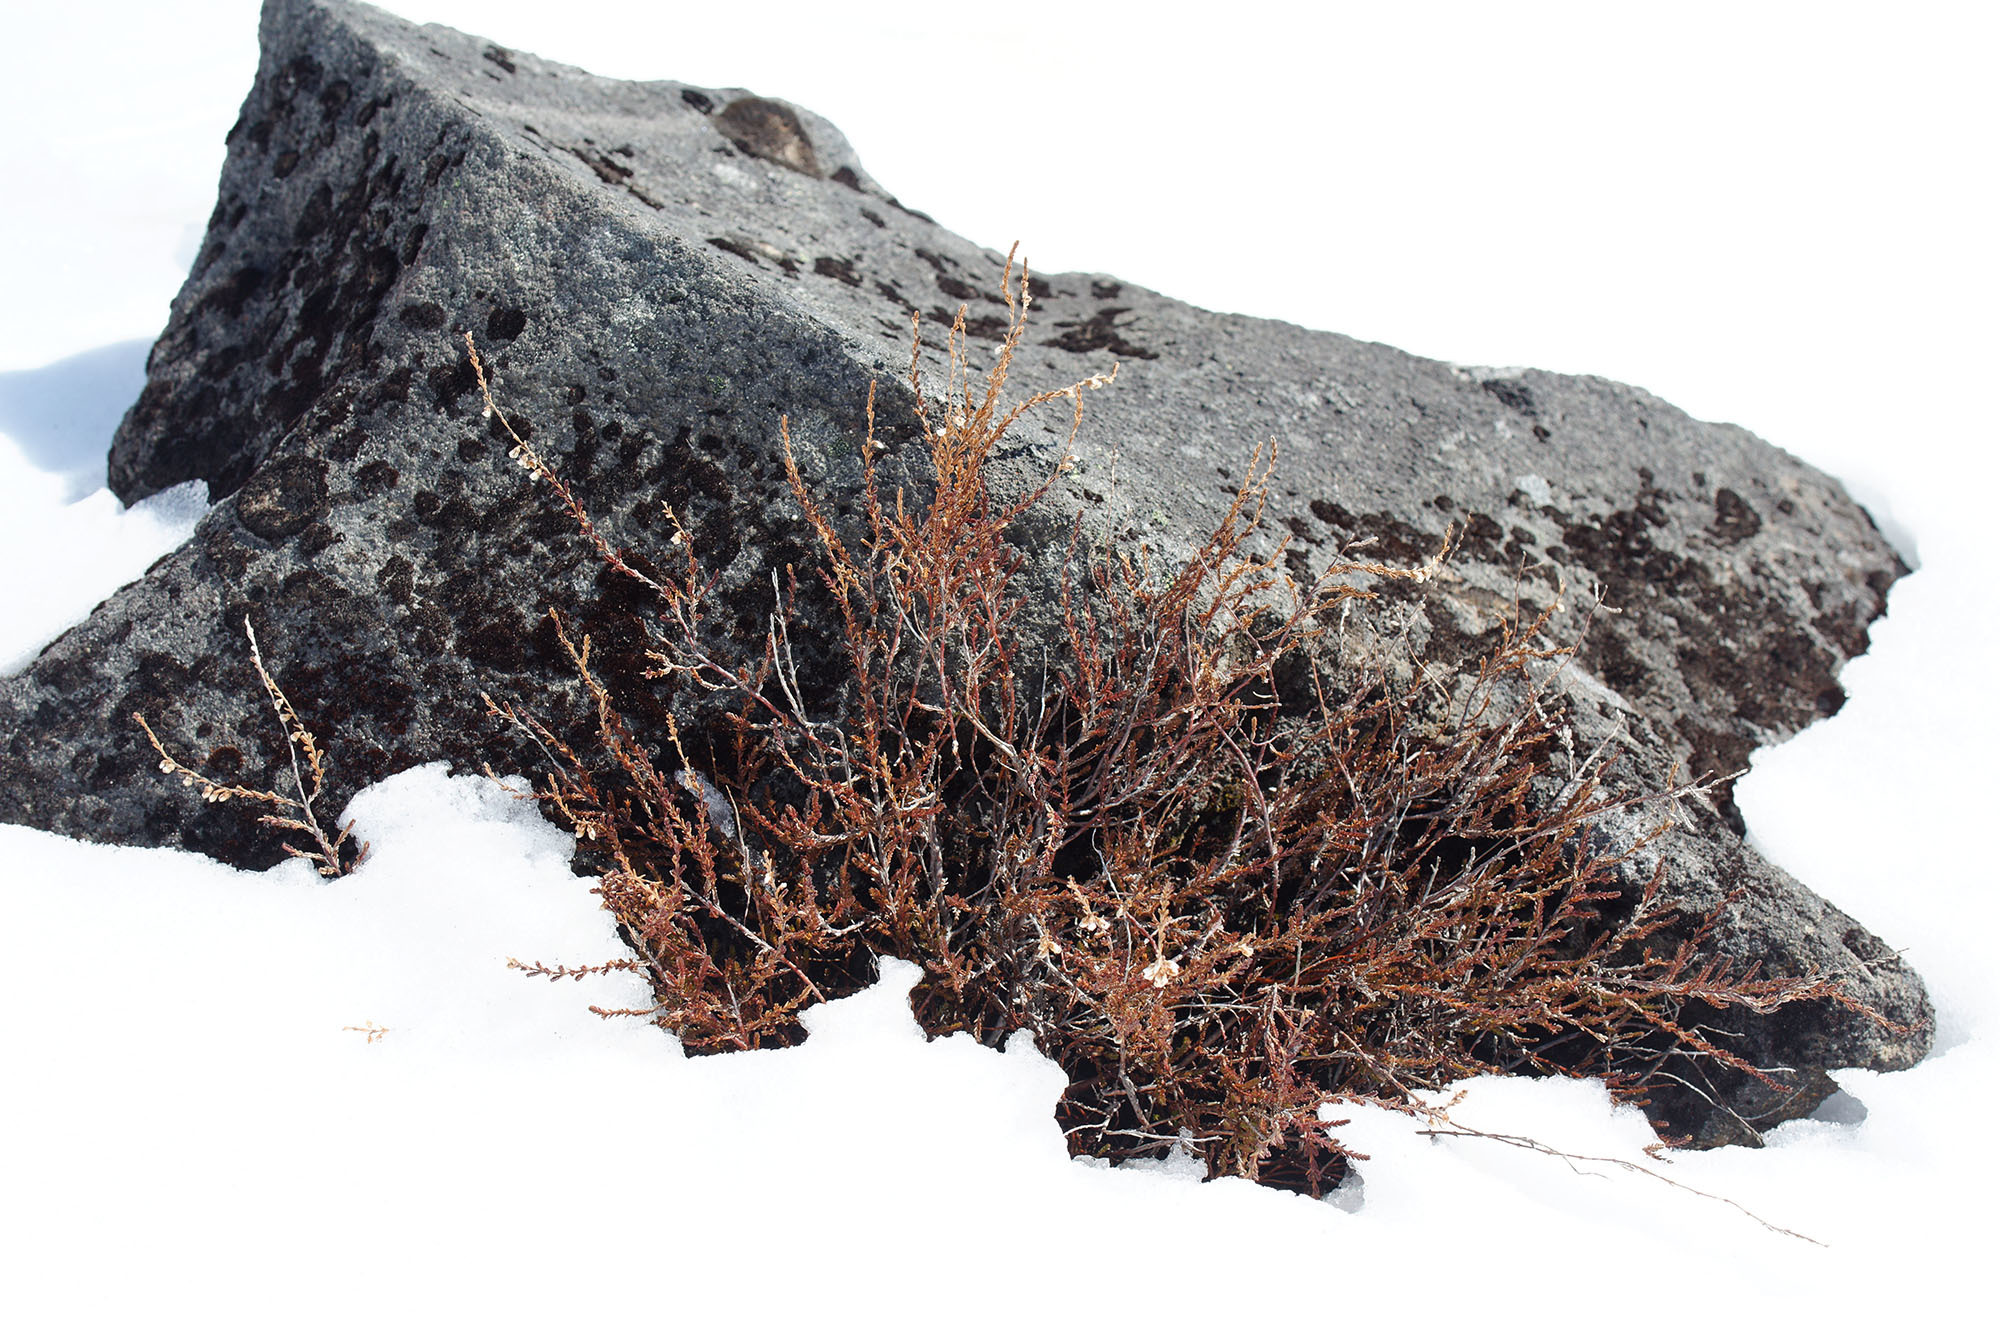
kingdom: Plantae
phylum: Tracheophyta
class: Magnoliopsida
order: Ericales
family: Ericaceae
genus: Calluna
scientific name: Calluna vulgaris
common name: Heather
